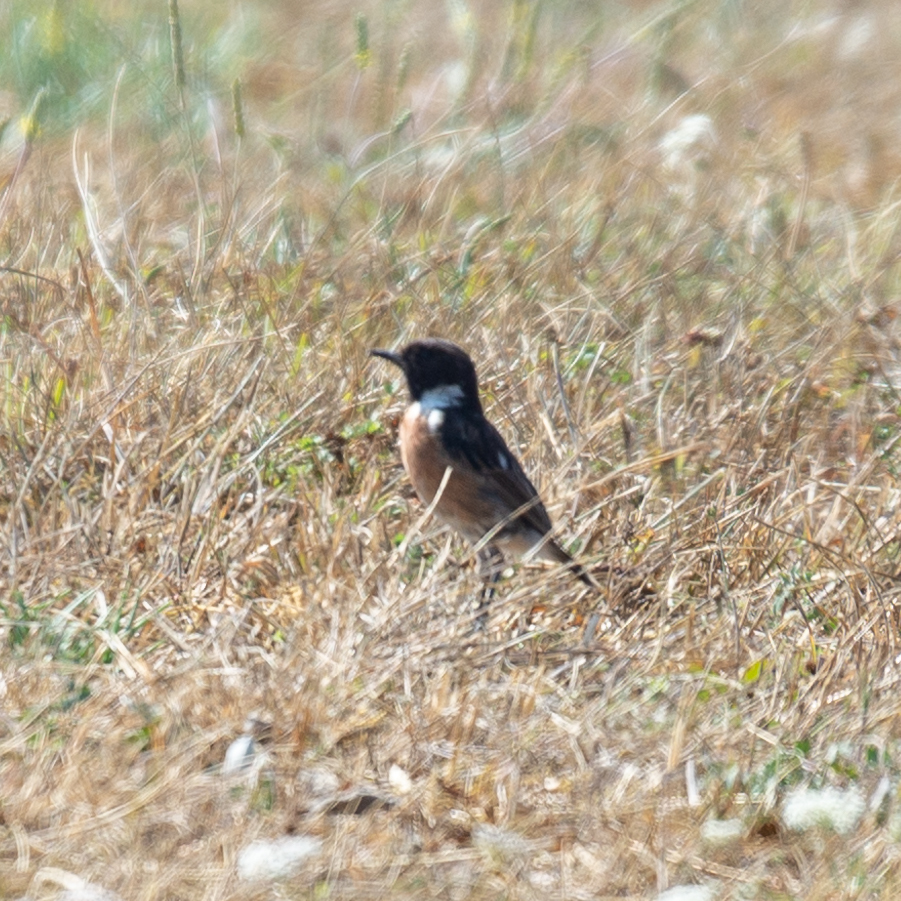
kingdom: Animalia
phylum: Chordata
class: Aves
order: Passeriformes
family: Muscicapidae
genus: Saxicola
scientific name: Saxicola rubicola
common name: European stonechat
